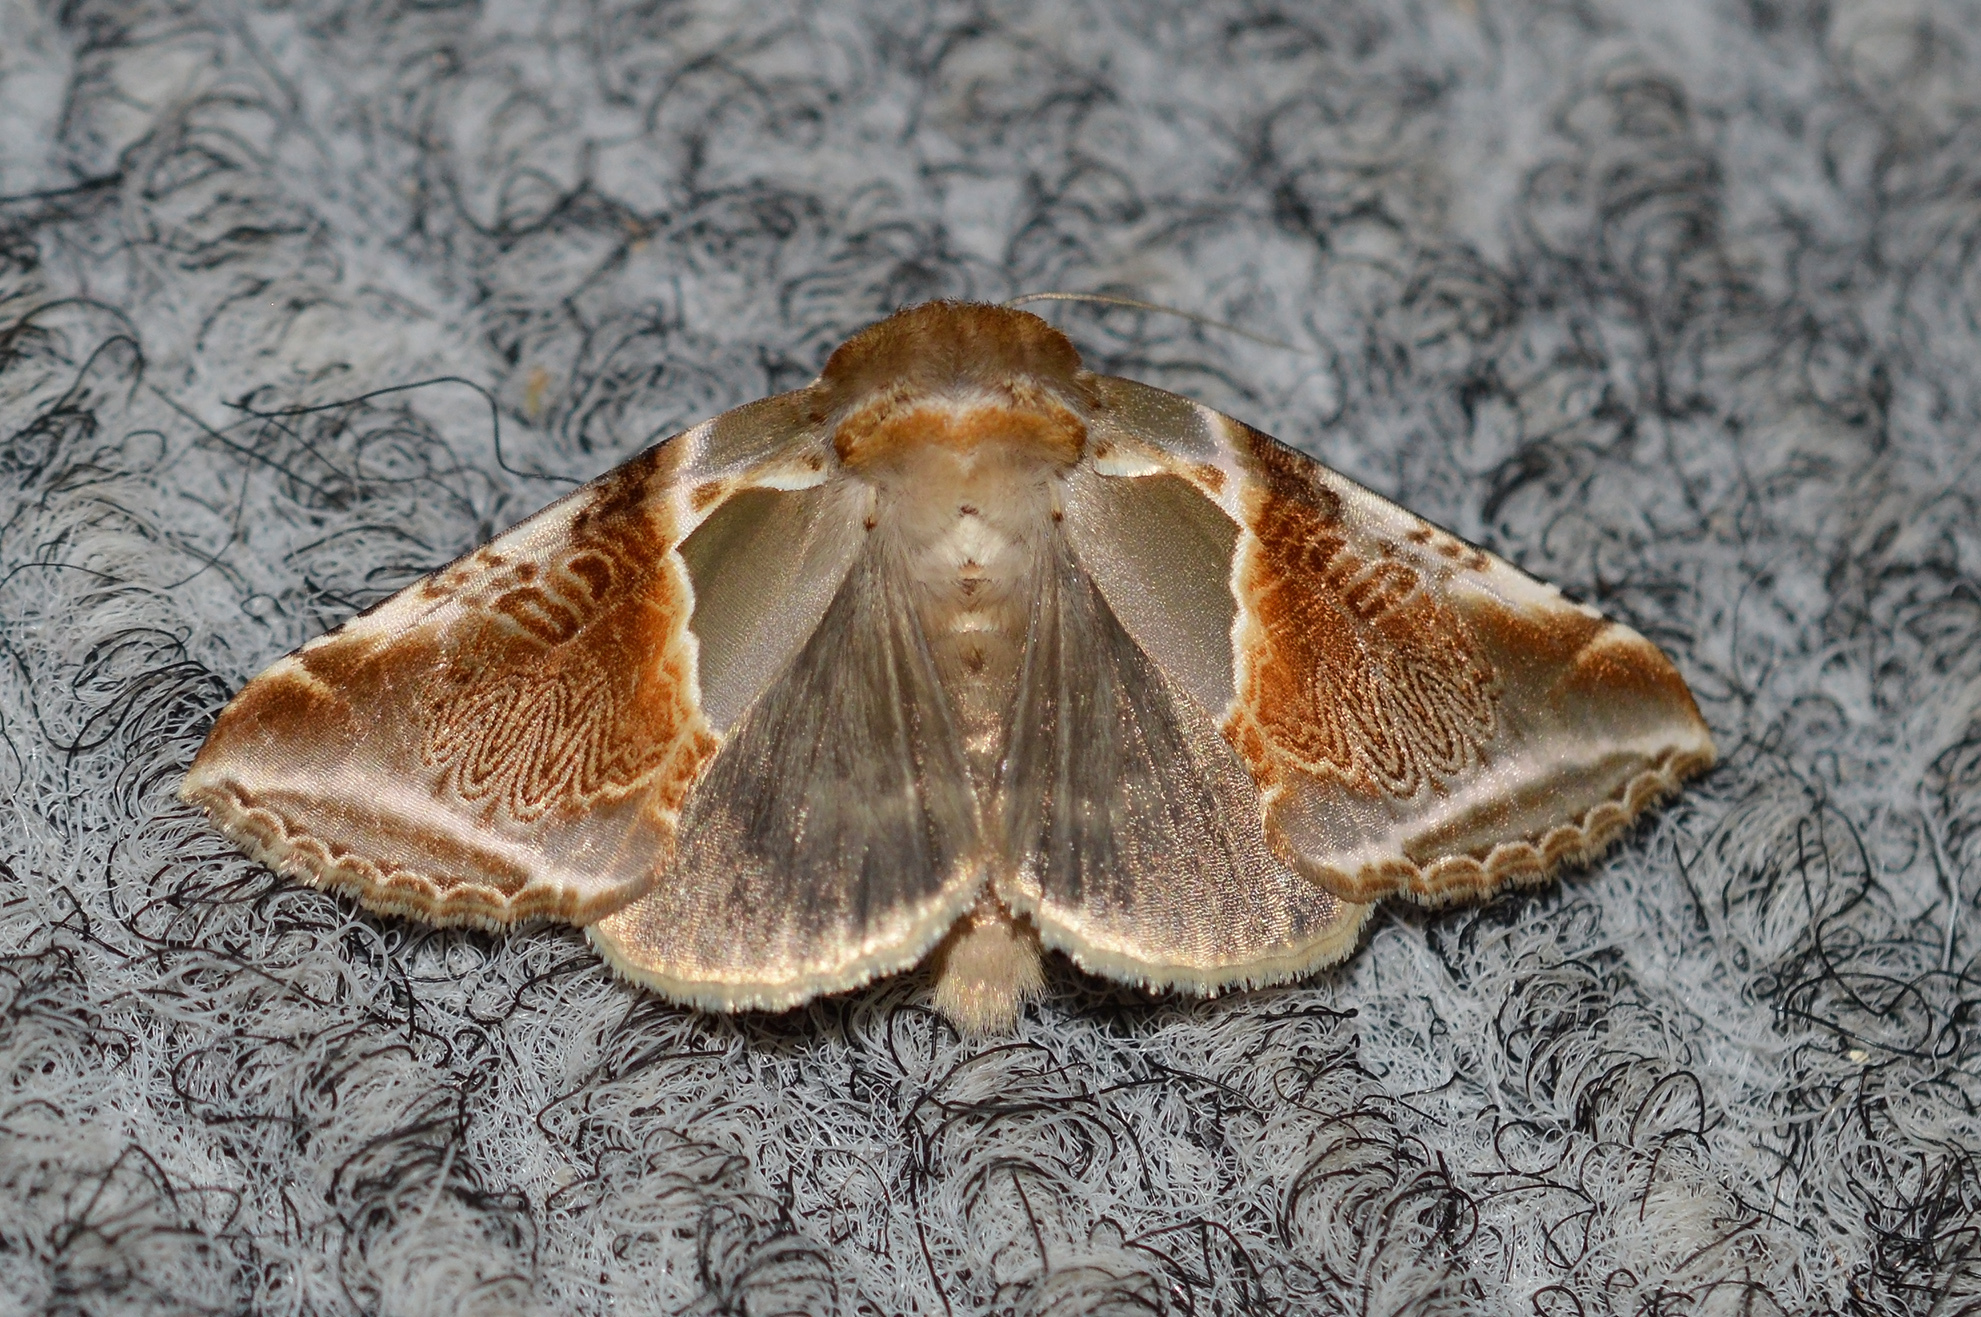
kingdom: Animalia
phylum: Arthropoda
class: Insecta
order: Lepidoptera
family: Drepanidae
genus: Habrosyne
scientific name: Habrosyne pyritoides
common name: Buff arches
